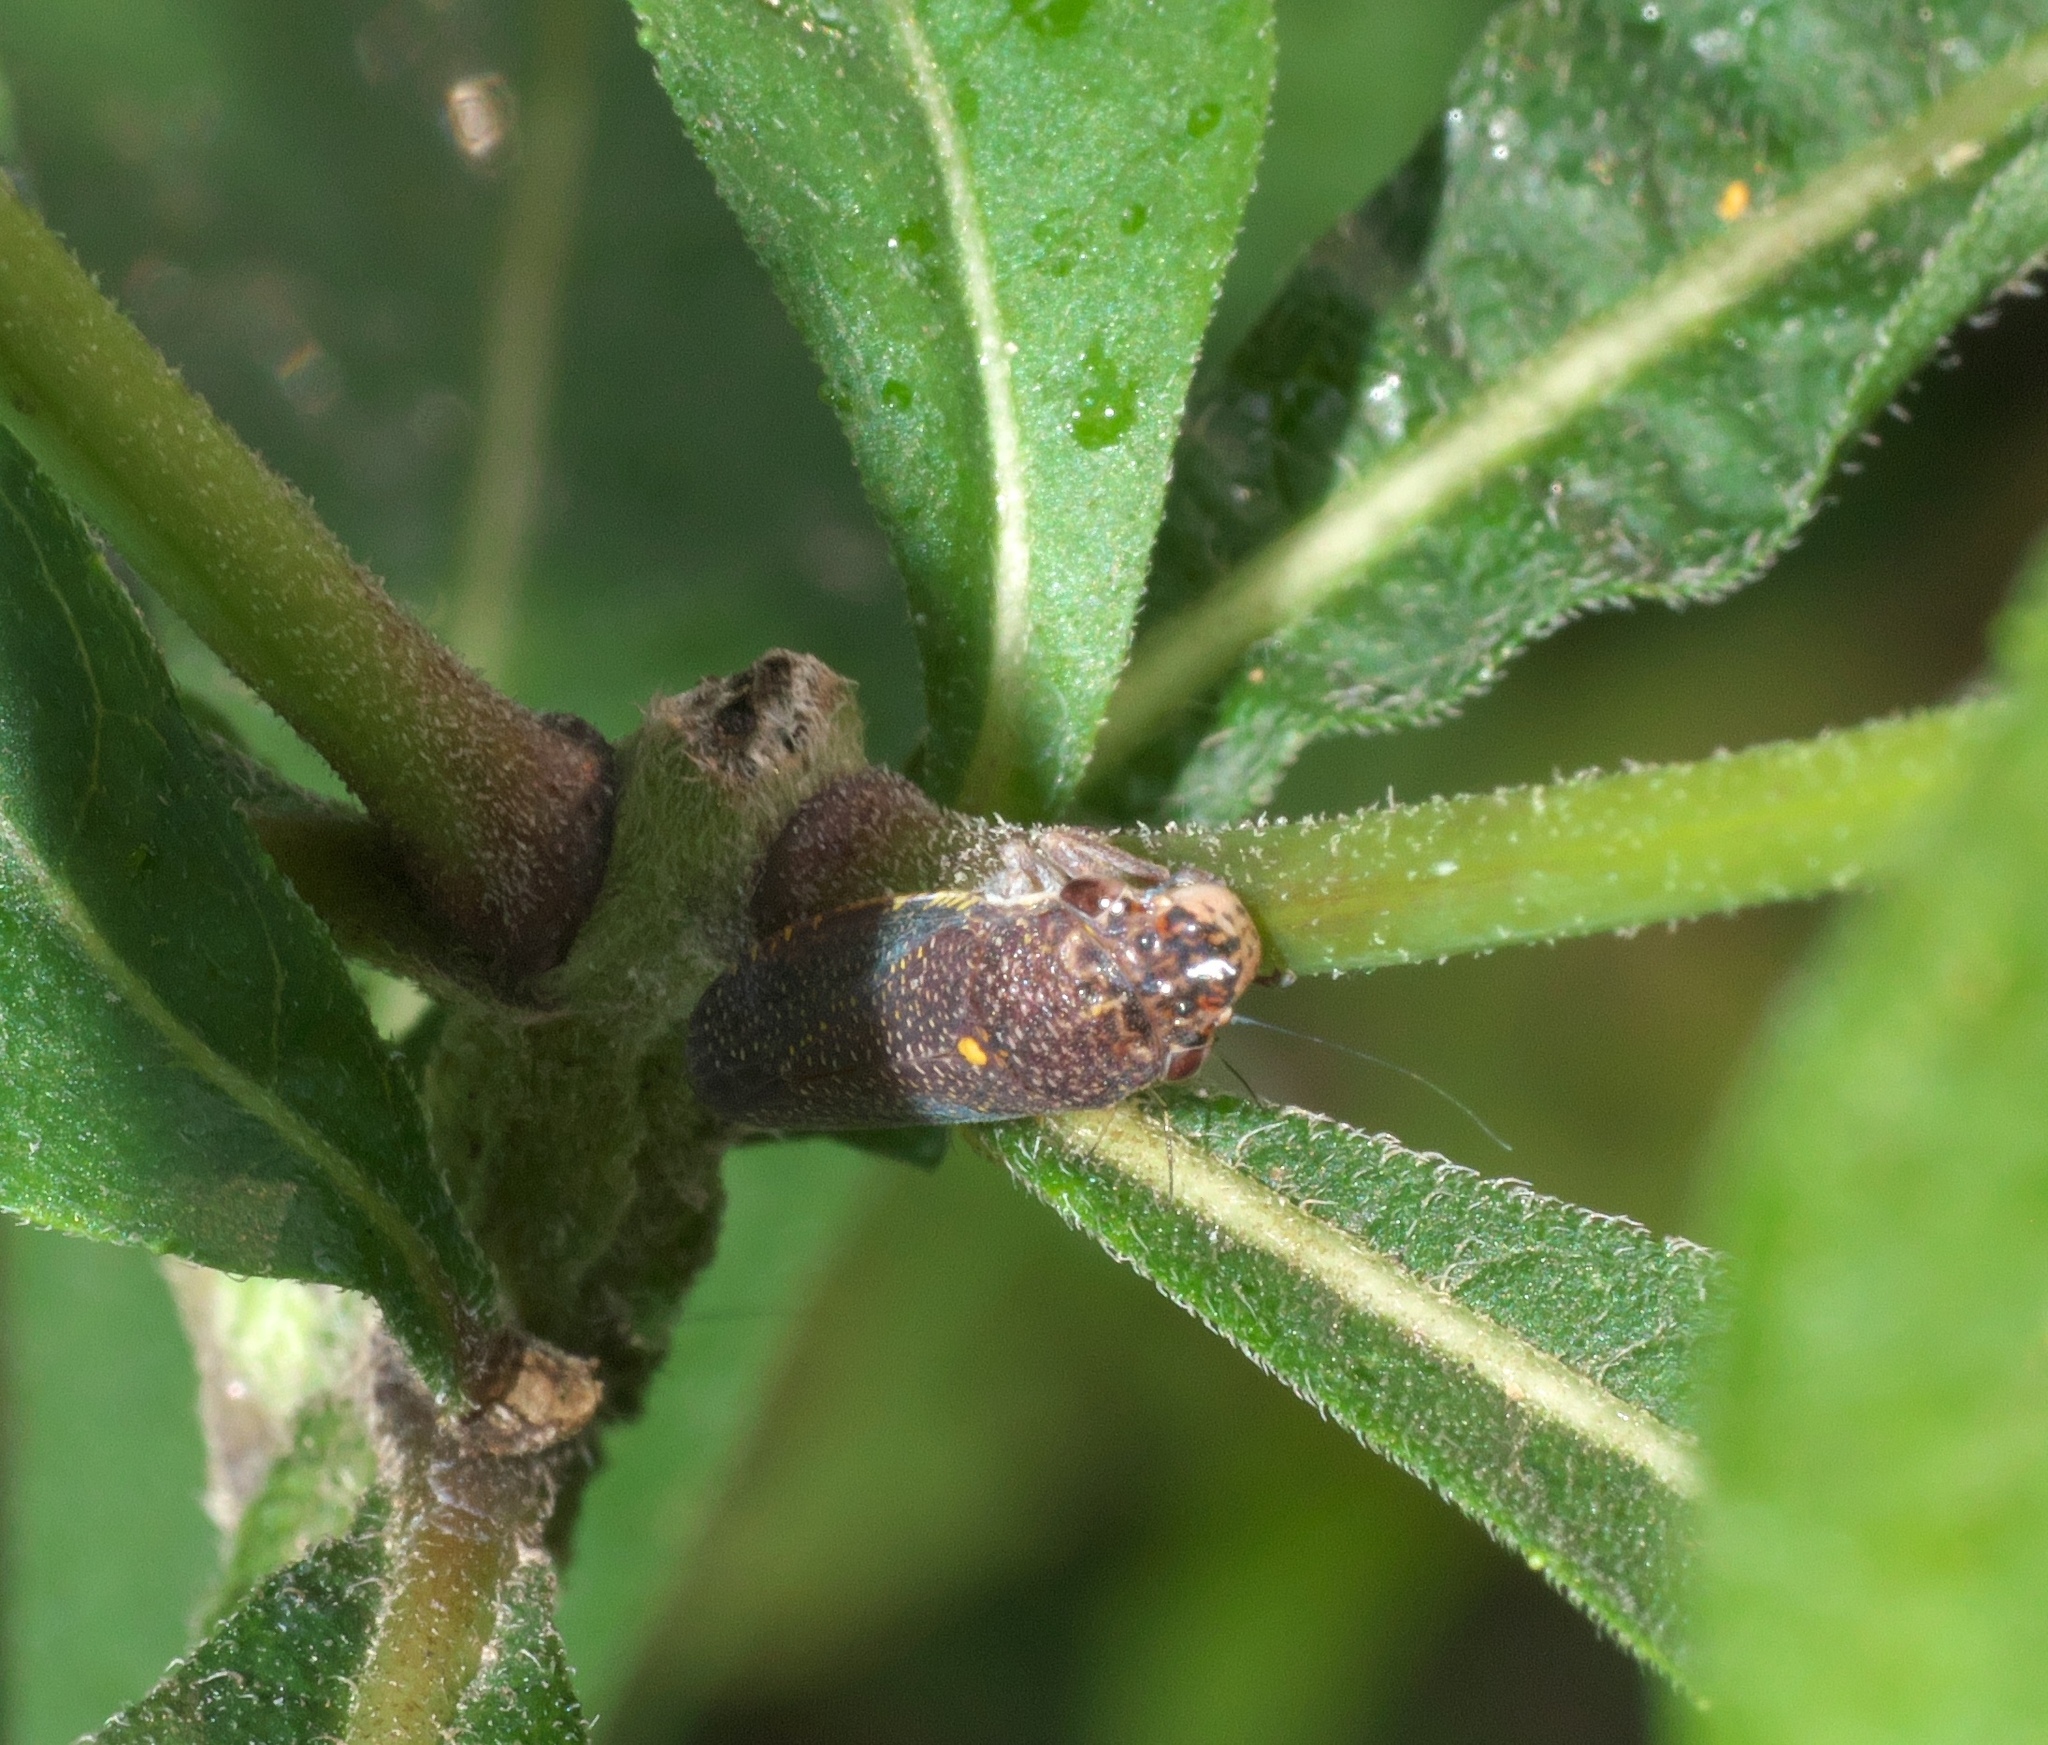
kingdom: Animalia
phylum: Arthropoda
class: Insecta
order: Hemiptera
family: Cicadellidae
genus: Paraulacizes
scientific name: Paraulacizes irrorata
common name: Speckled sharpshooter
